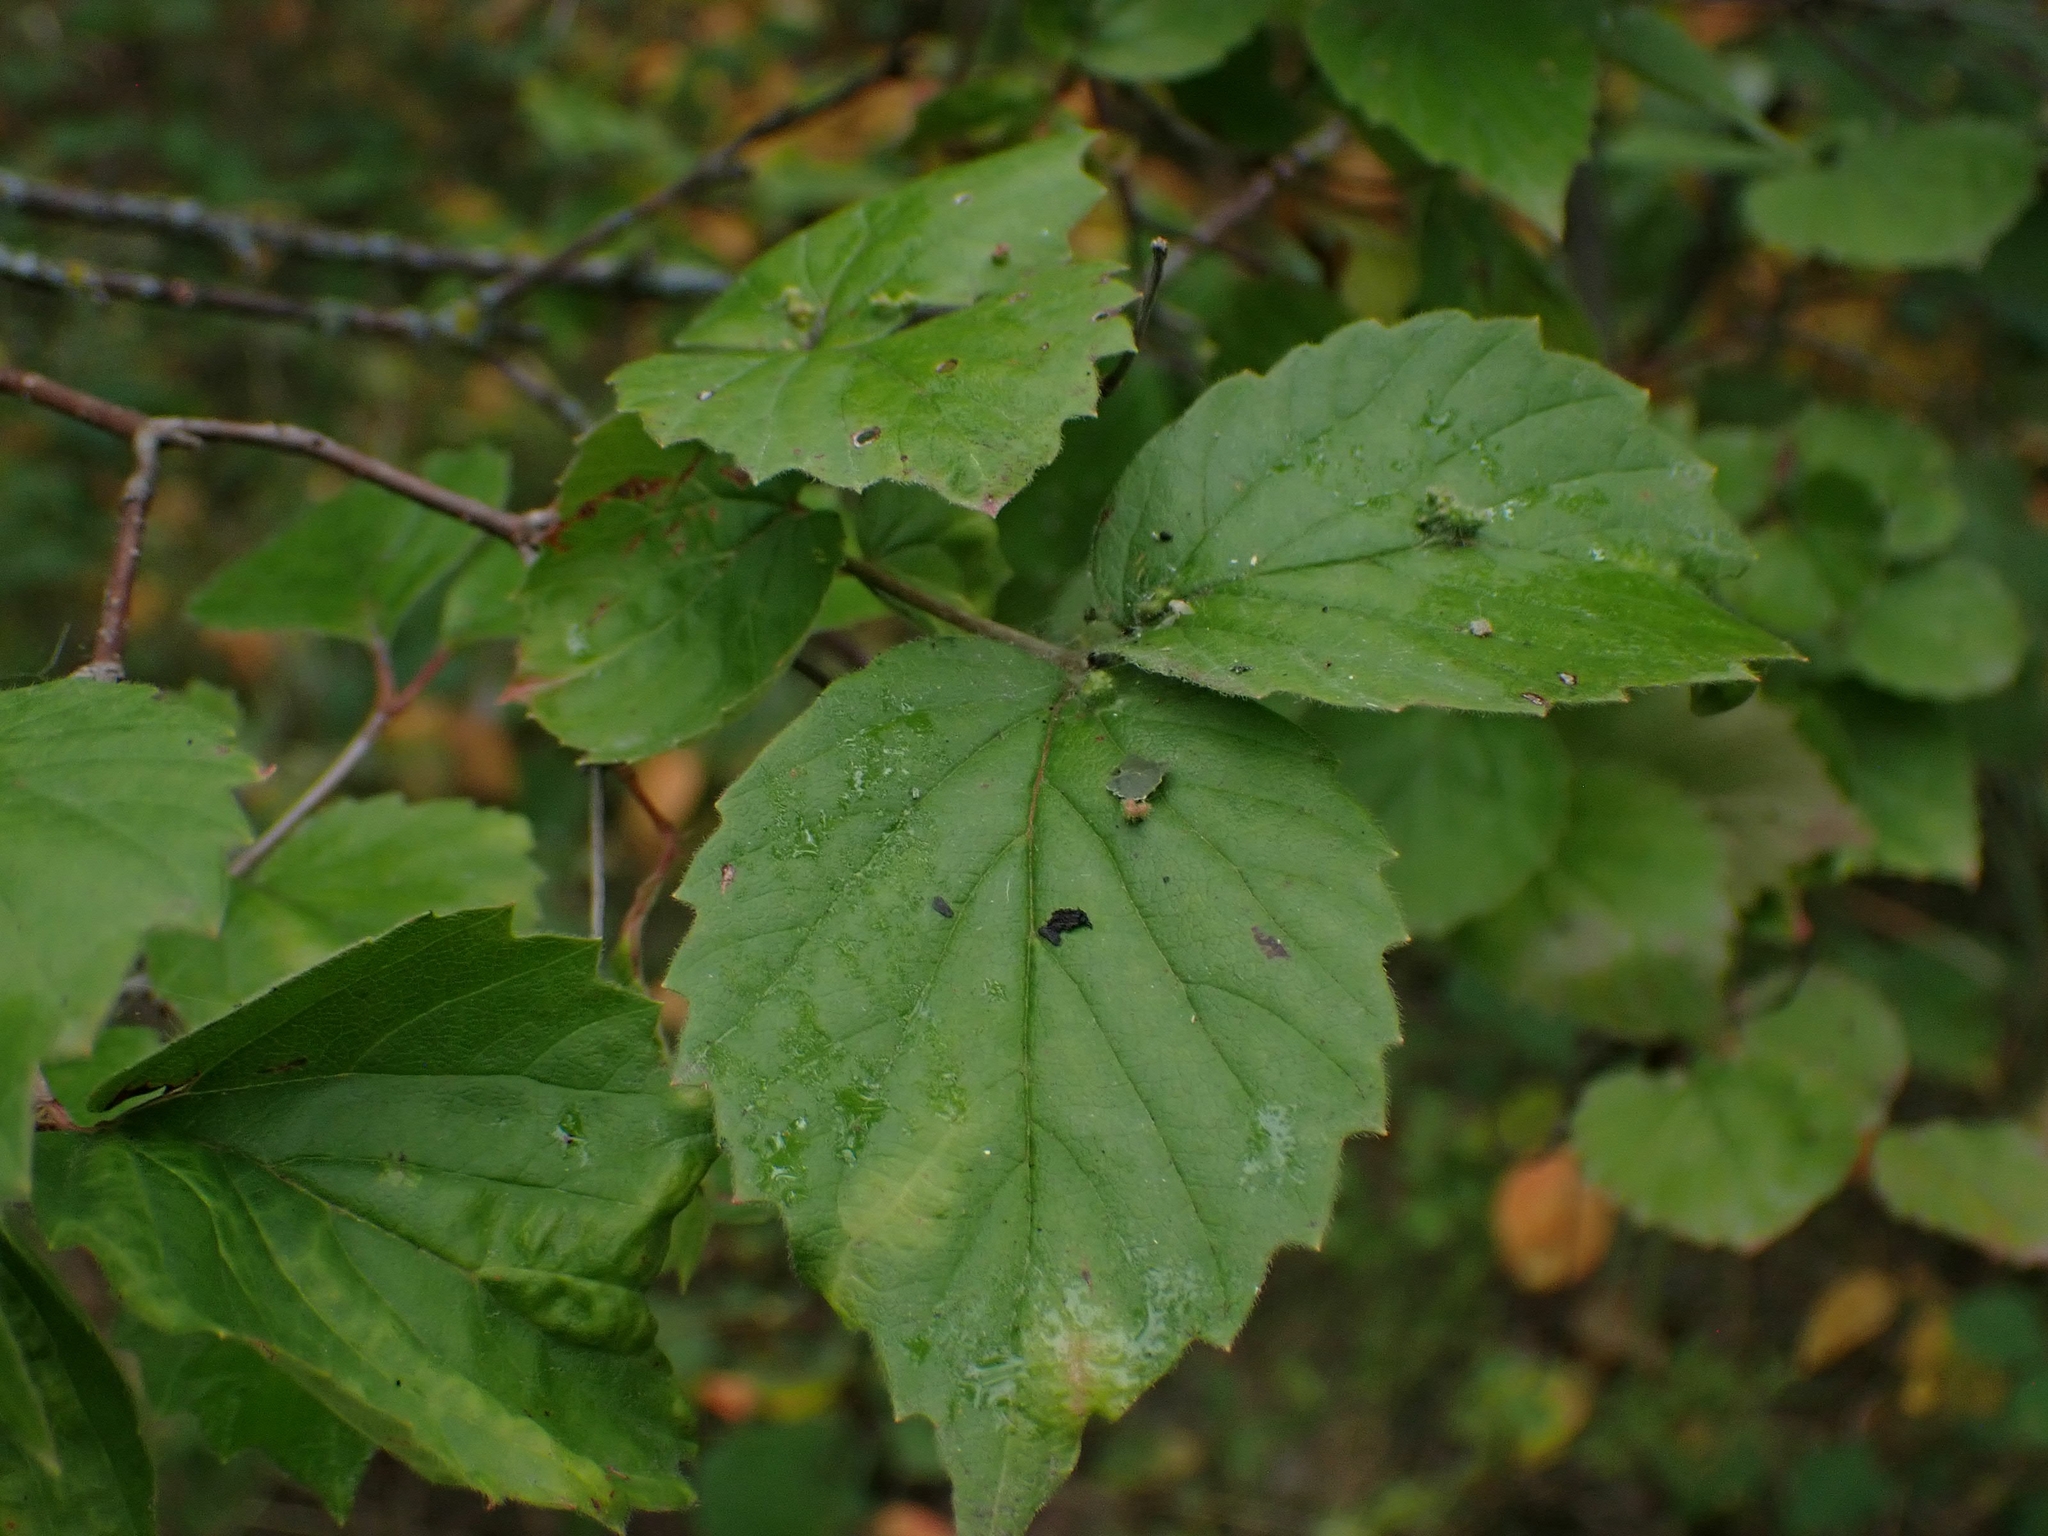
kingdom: Plantae
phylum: Tracheophyta
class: Magnoliopsida
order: Dipsacales
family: Viburnaceae
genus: Viburnum
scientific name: Viburnum rafinesqueanum
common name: Downy arrow-wood
